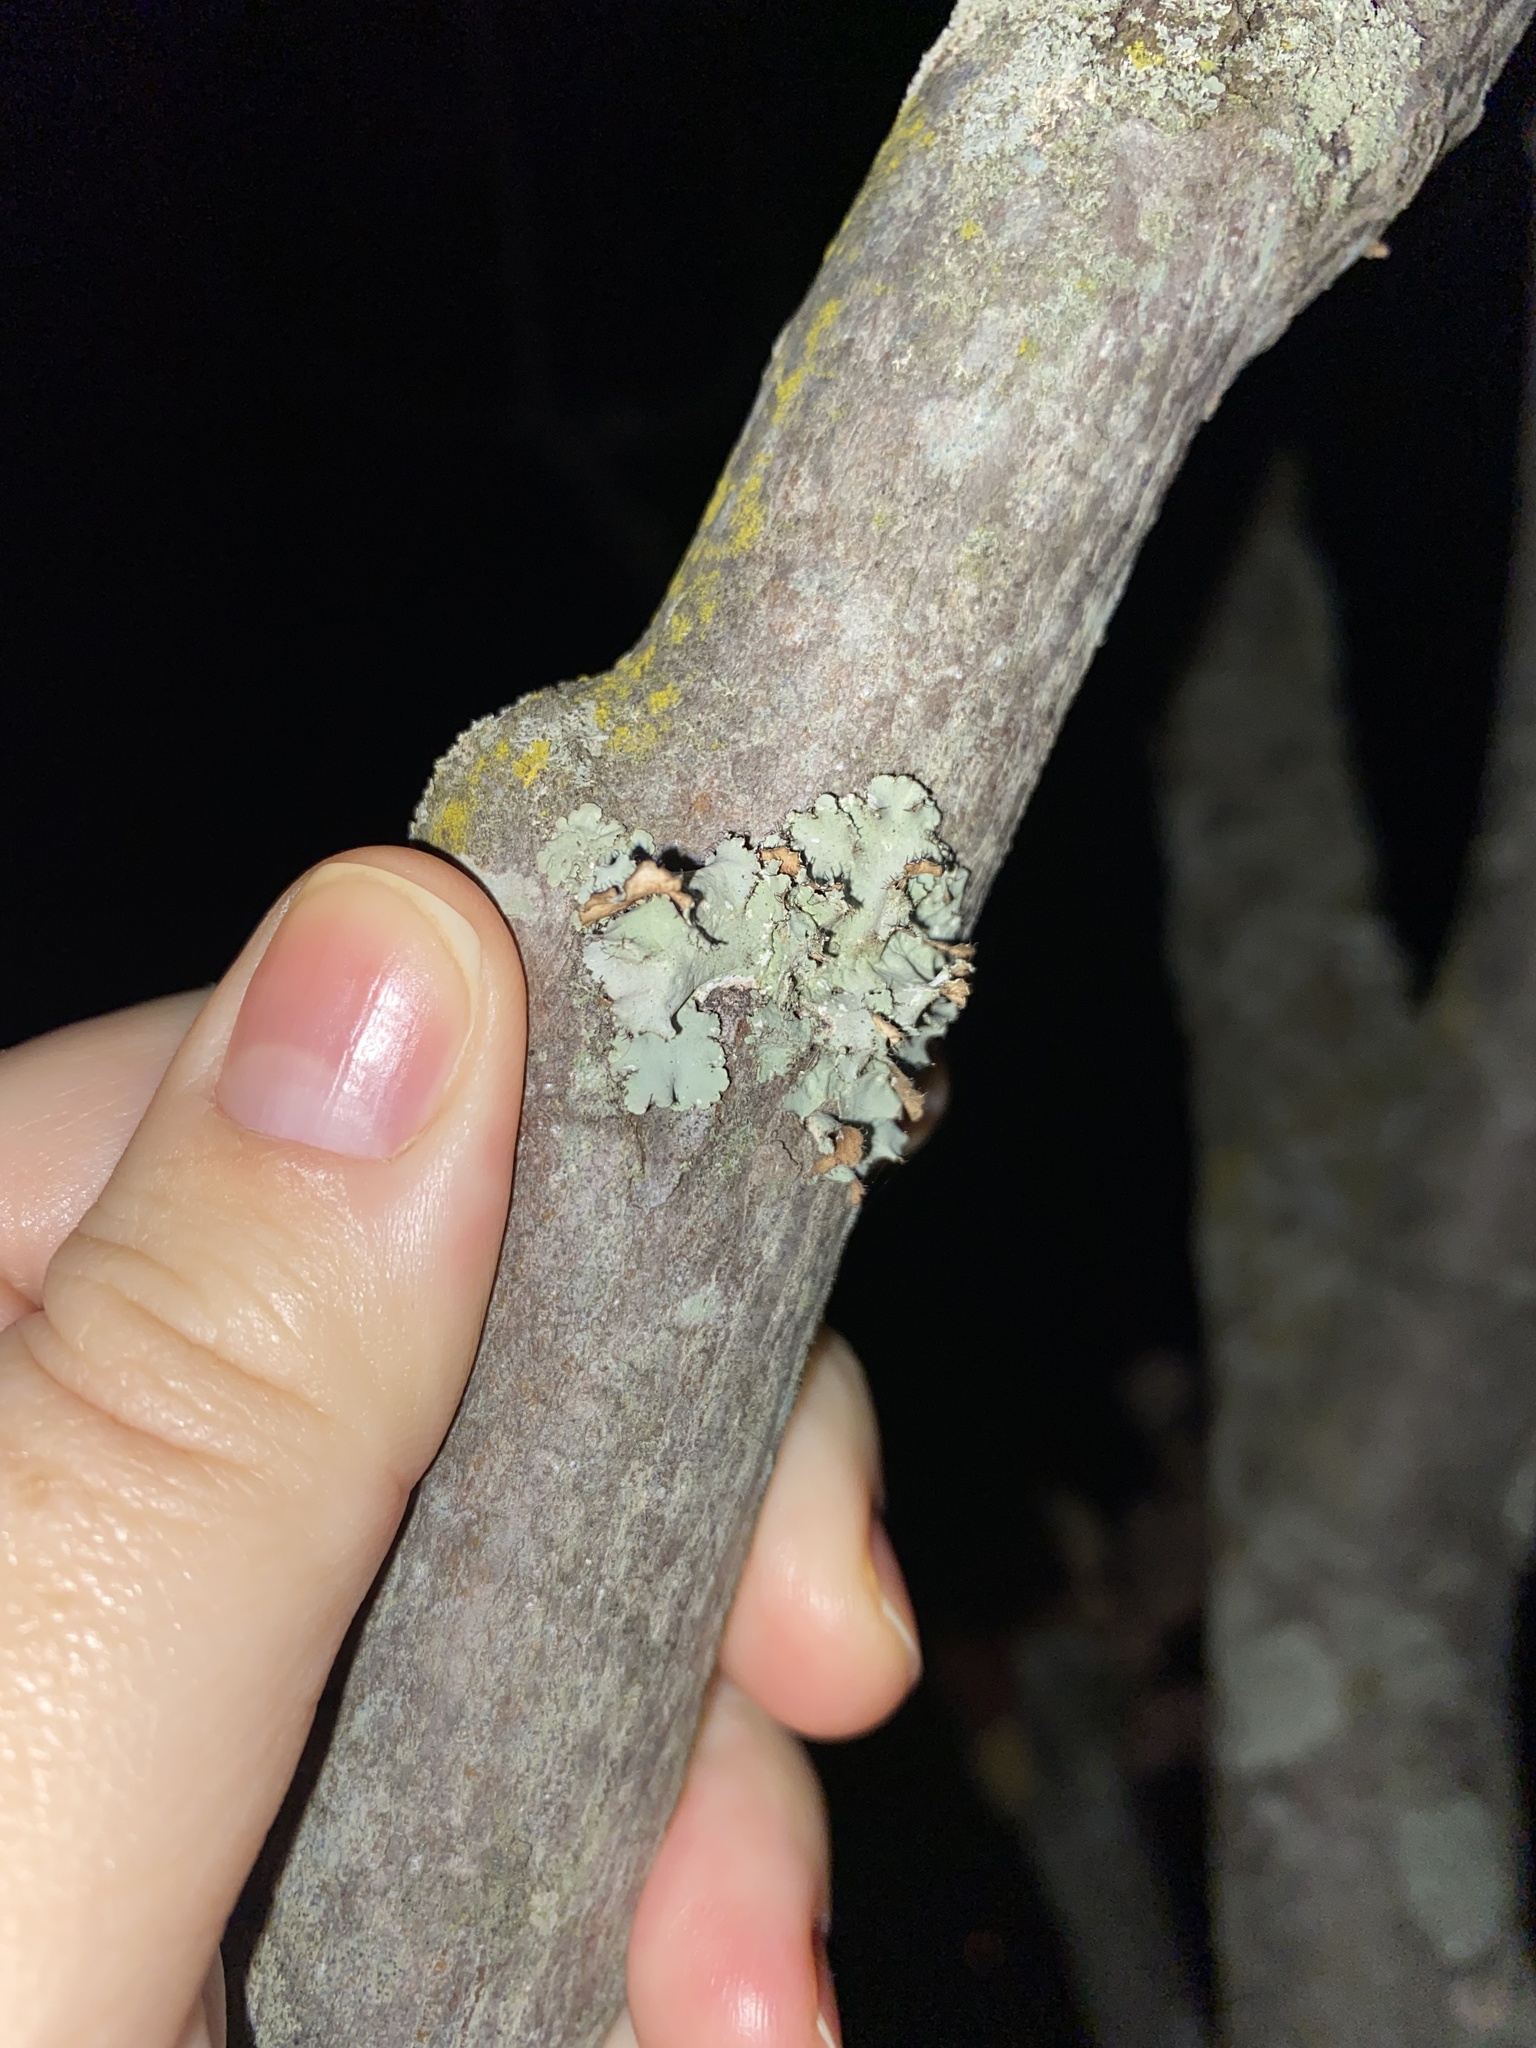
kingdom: Fungi
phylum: Ascomycota
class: Lecanoromycetes
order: Lecanorales
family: Parmeliaceae
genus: Parmotrema
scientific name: Parmotrema hypotropum
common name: Powdered ruffle lichen
